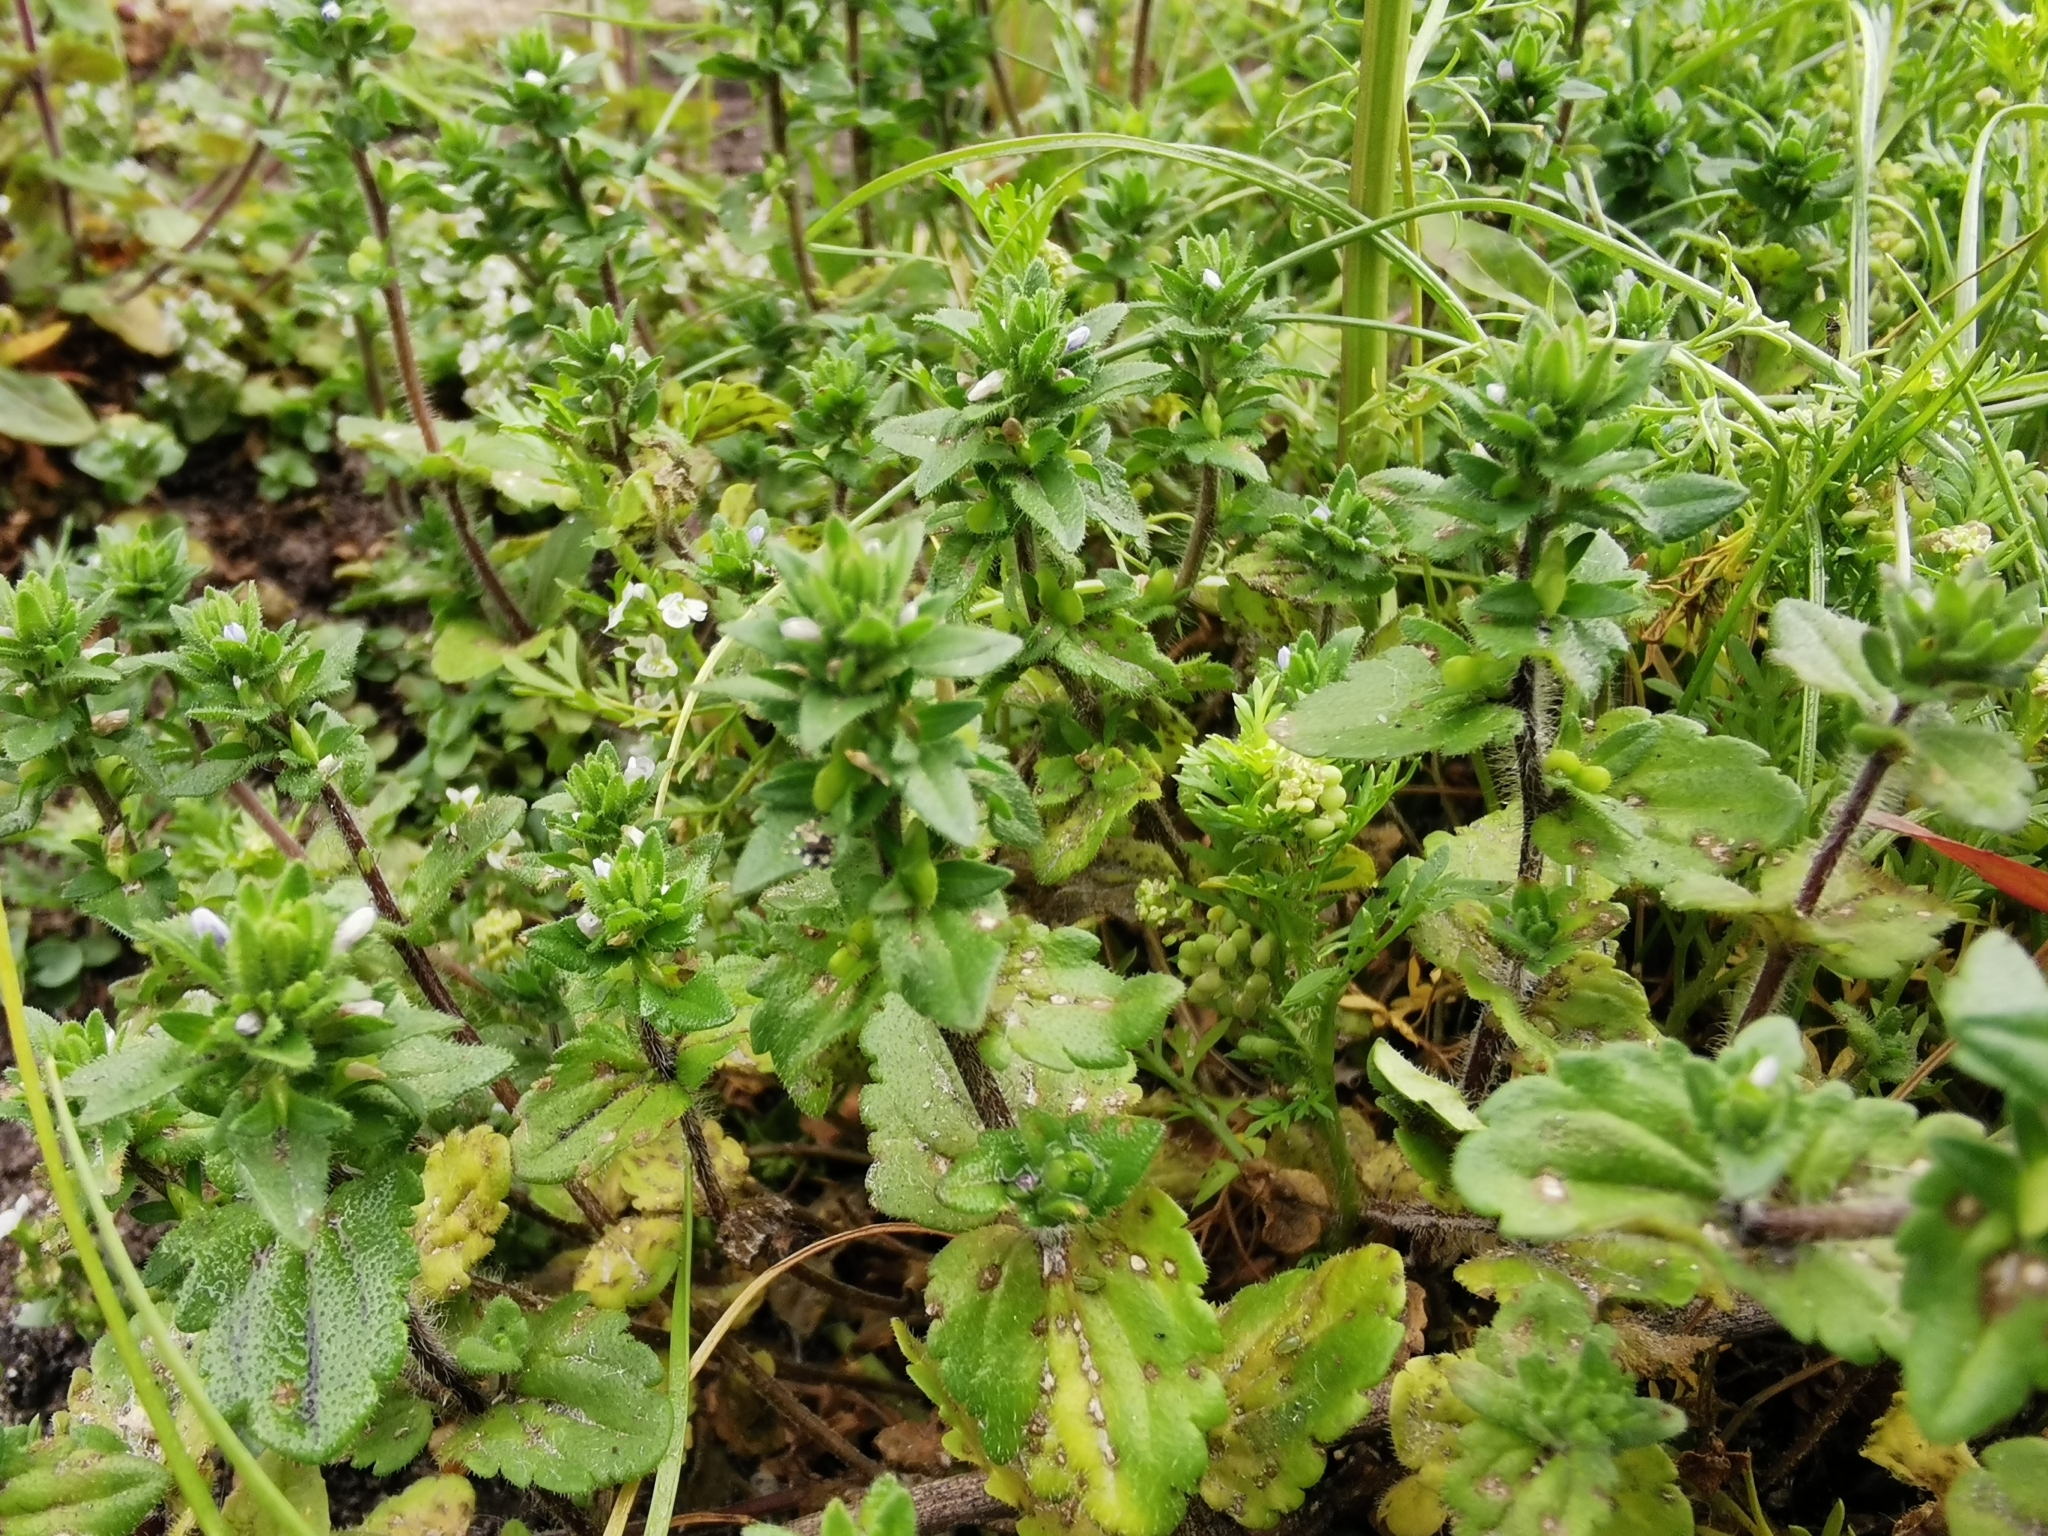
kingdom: Plantae
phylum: Tracheophyta
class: Magnoliopsida
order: Lamiales
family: Plantaginaceae
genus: Veronica
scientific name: Veronica arvensis
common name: Corn speedwell
